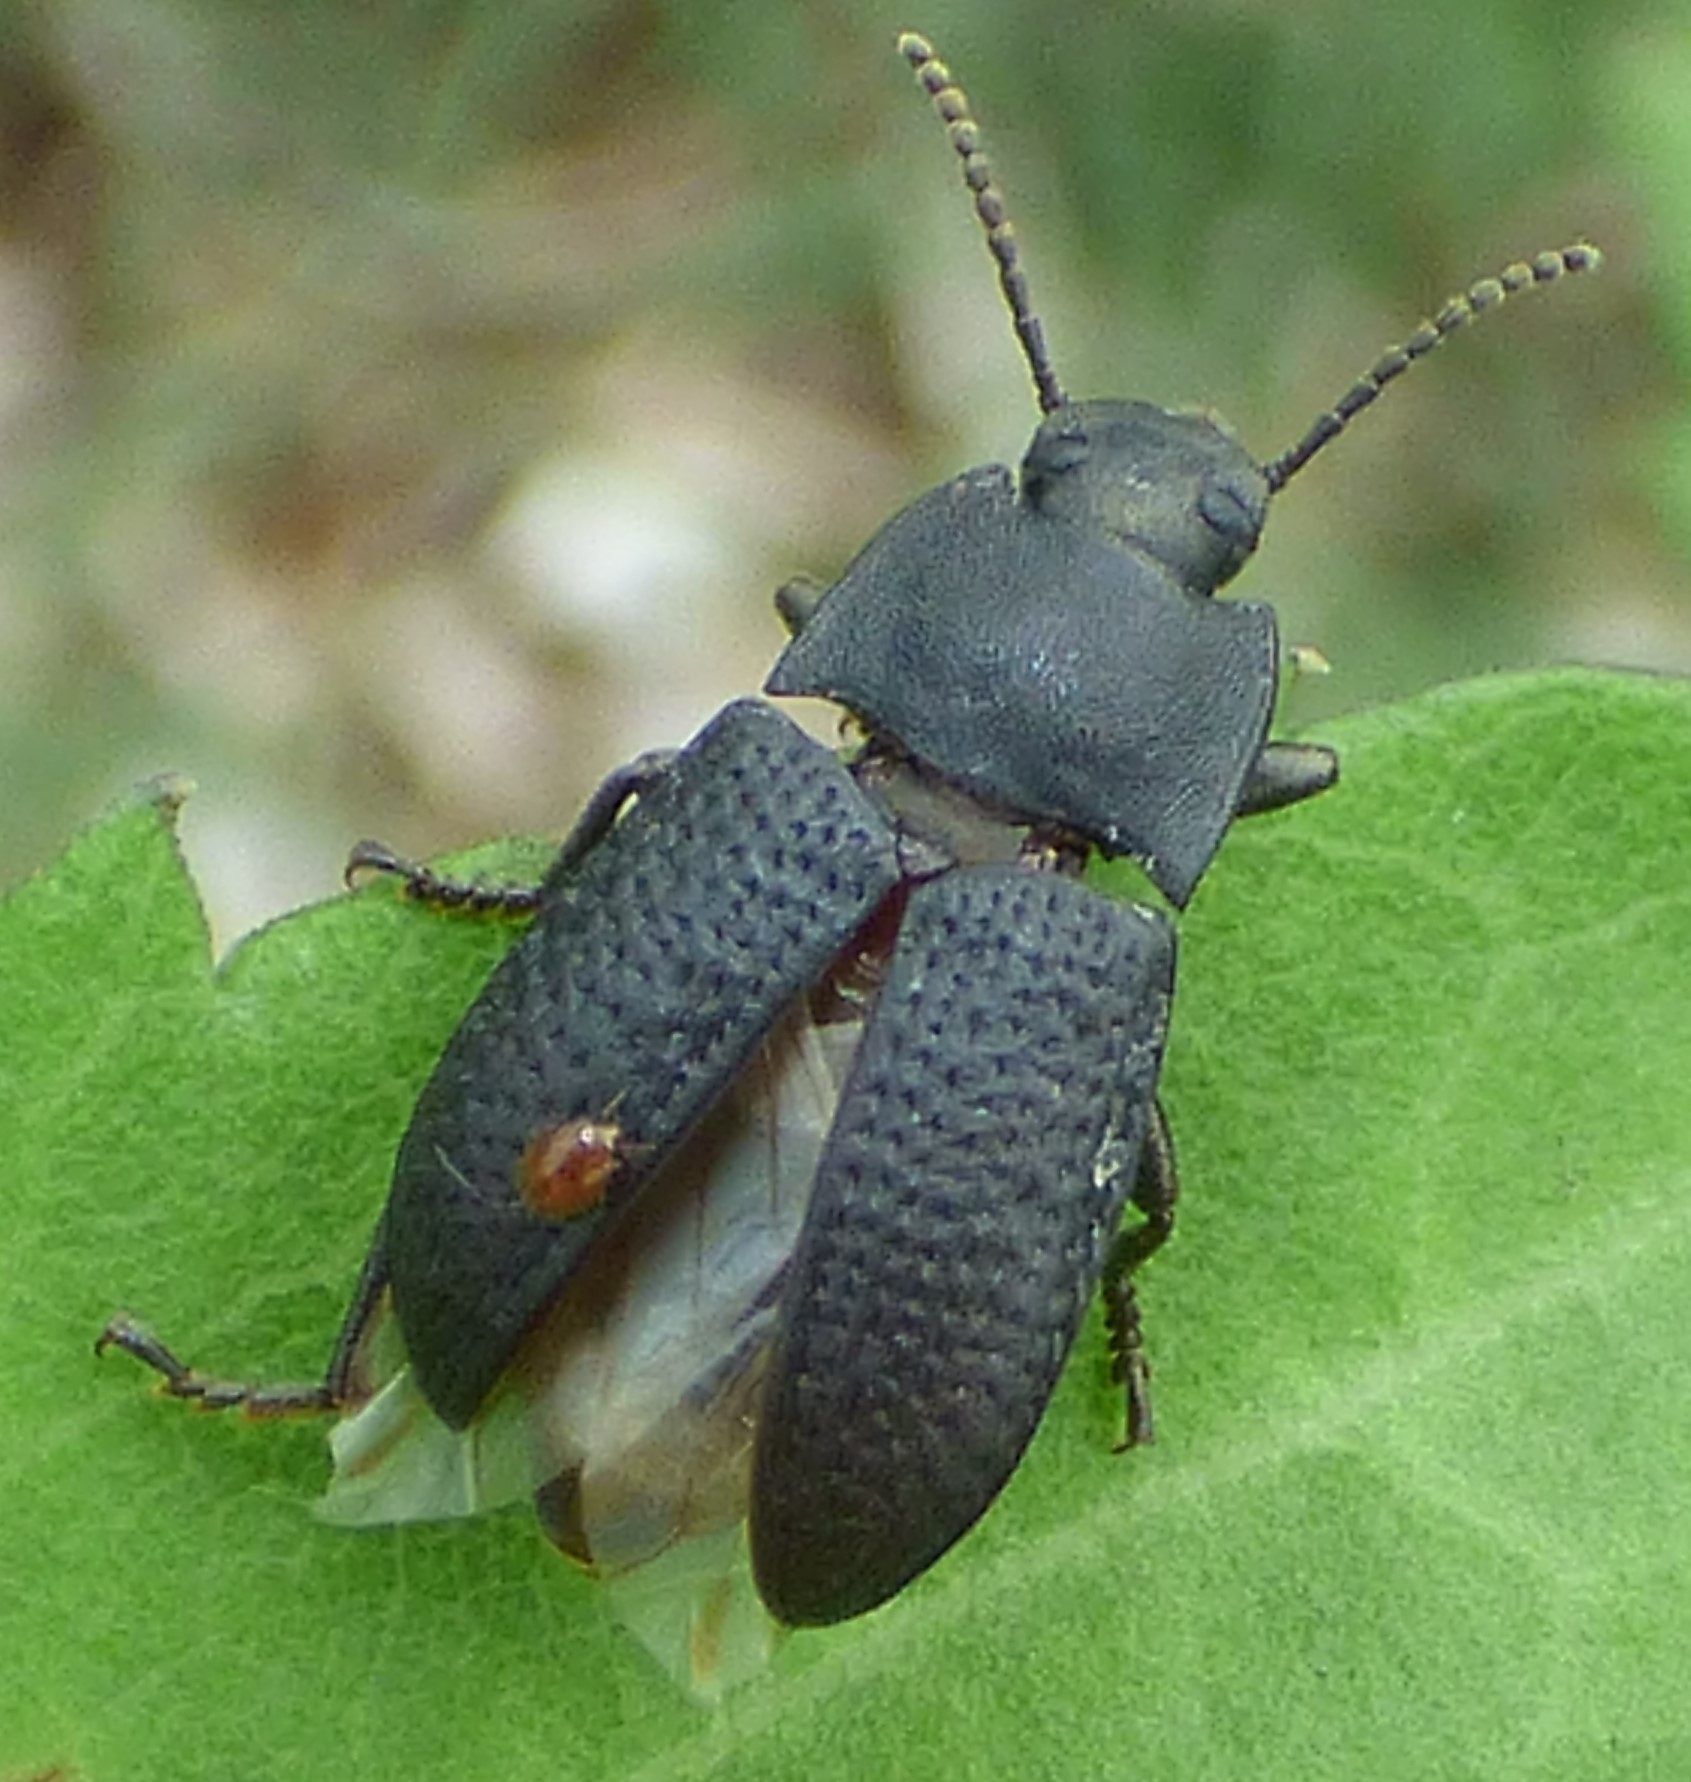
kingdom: Animalia
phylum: Arthropoda
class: Insecta
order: Coleoptera
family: Tenebrionidae
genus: Asiopus
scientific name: Asiopus
